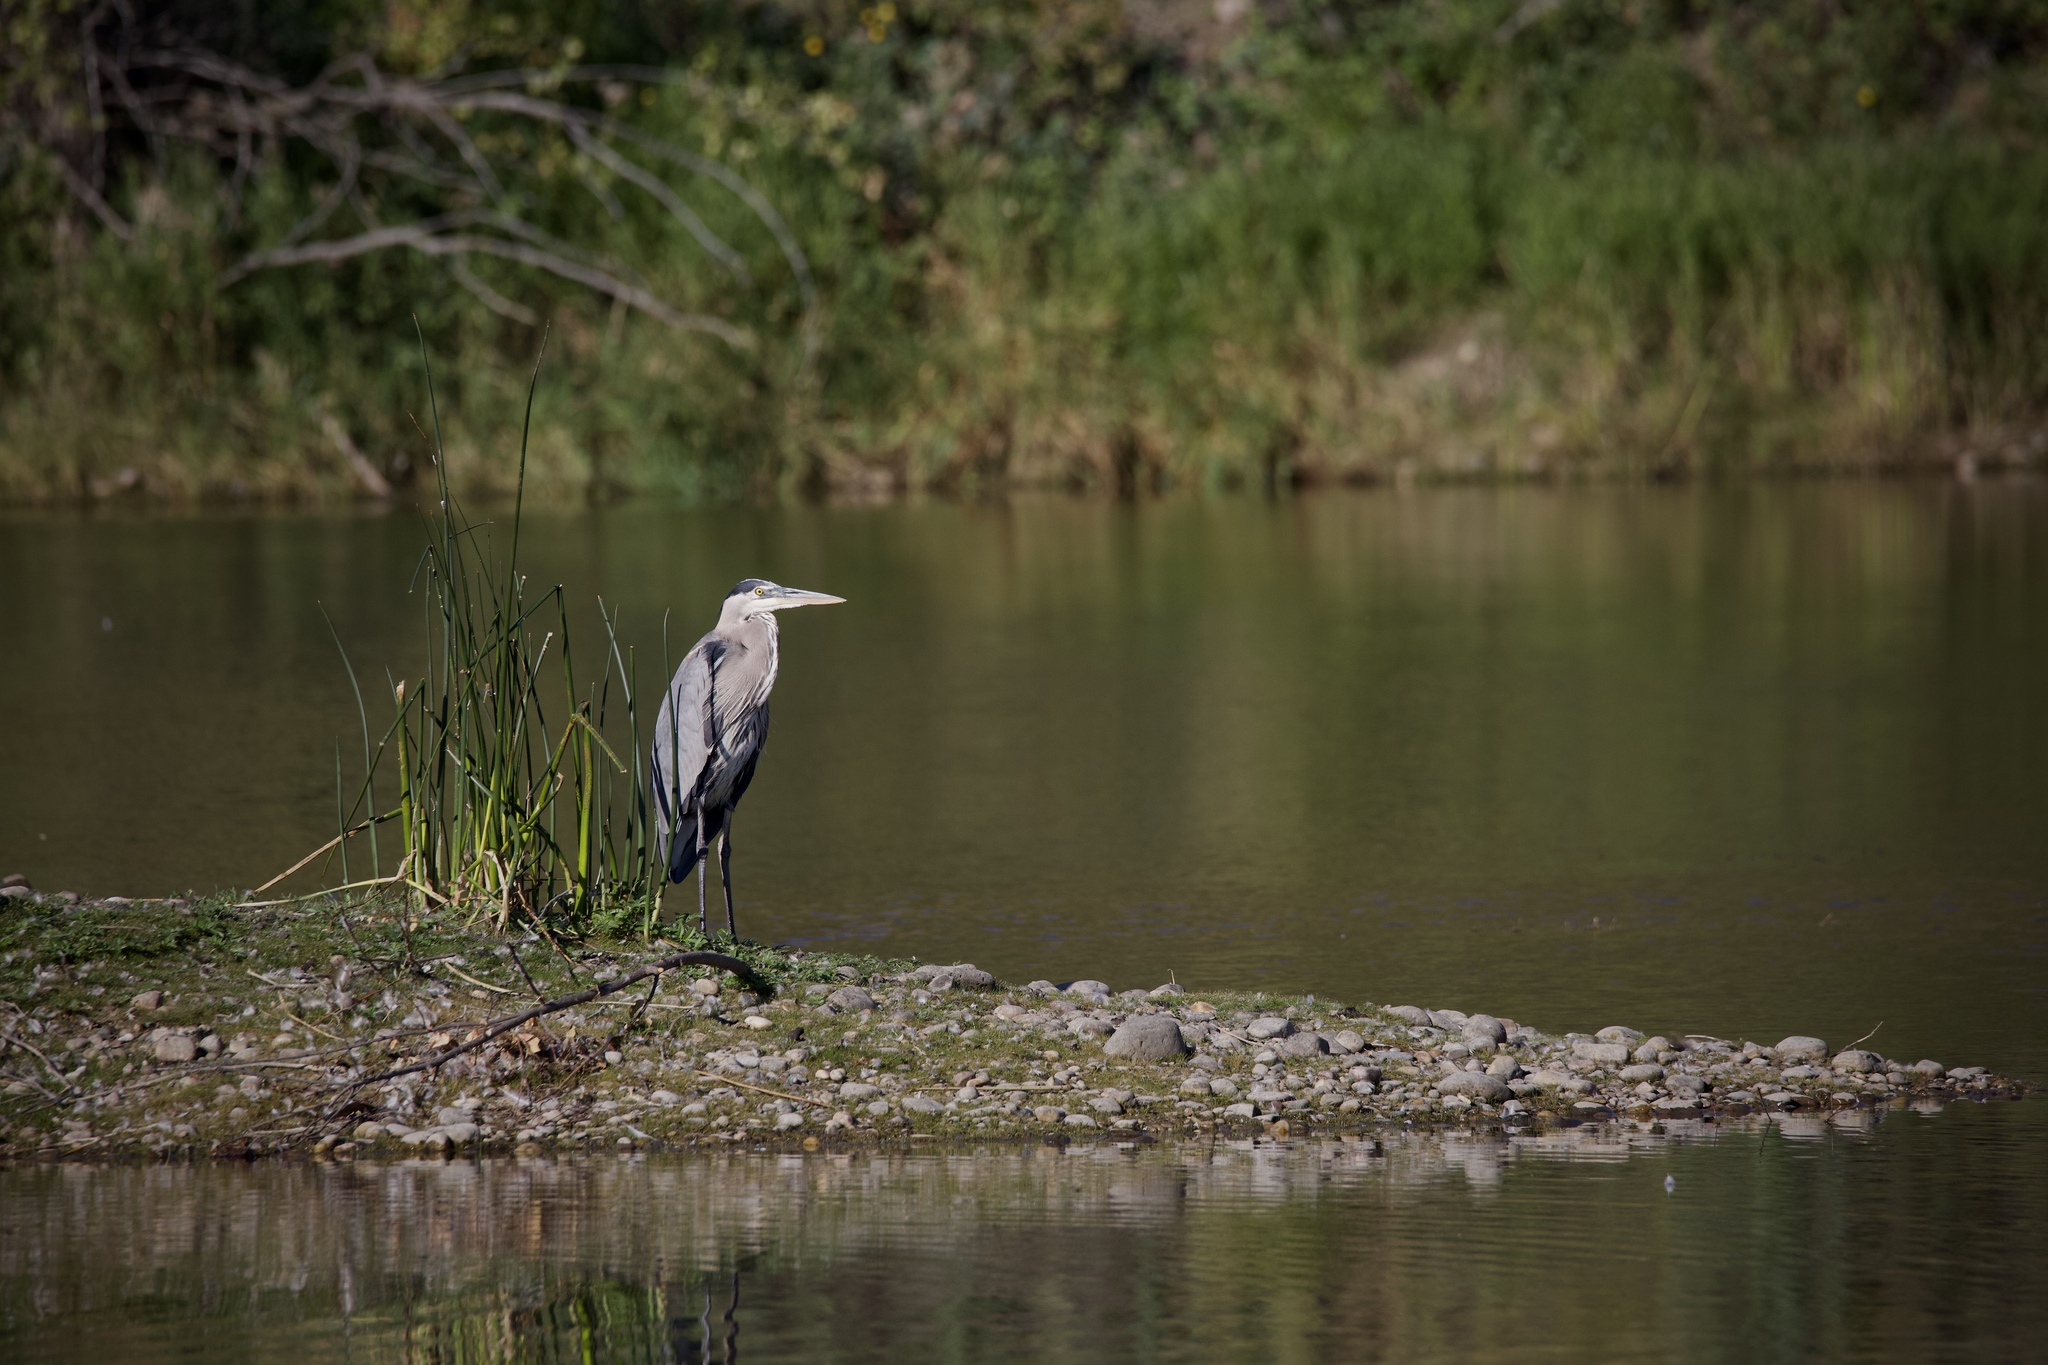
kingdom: Animalia
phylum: Chordata
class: Aves
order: Pelecaniformes
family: Ardeidae
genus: Ardea
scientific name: Ardea herodias
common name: Great blue heron
